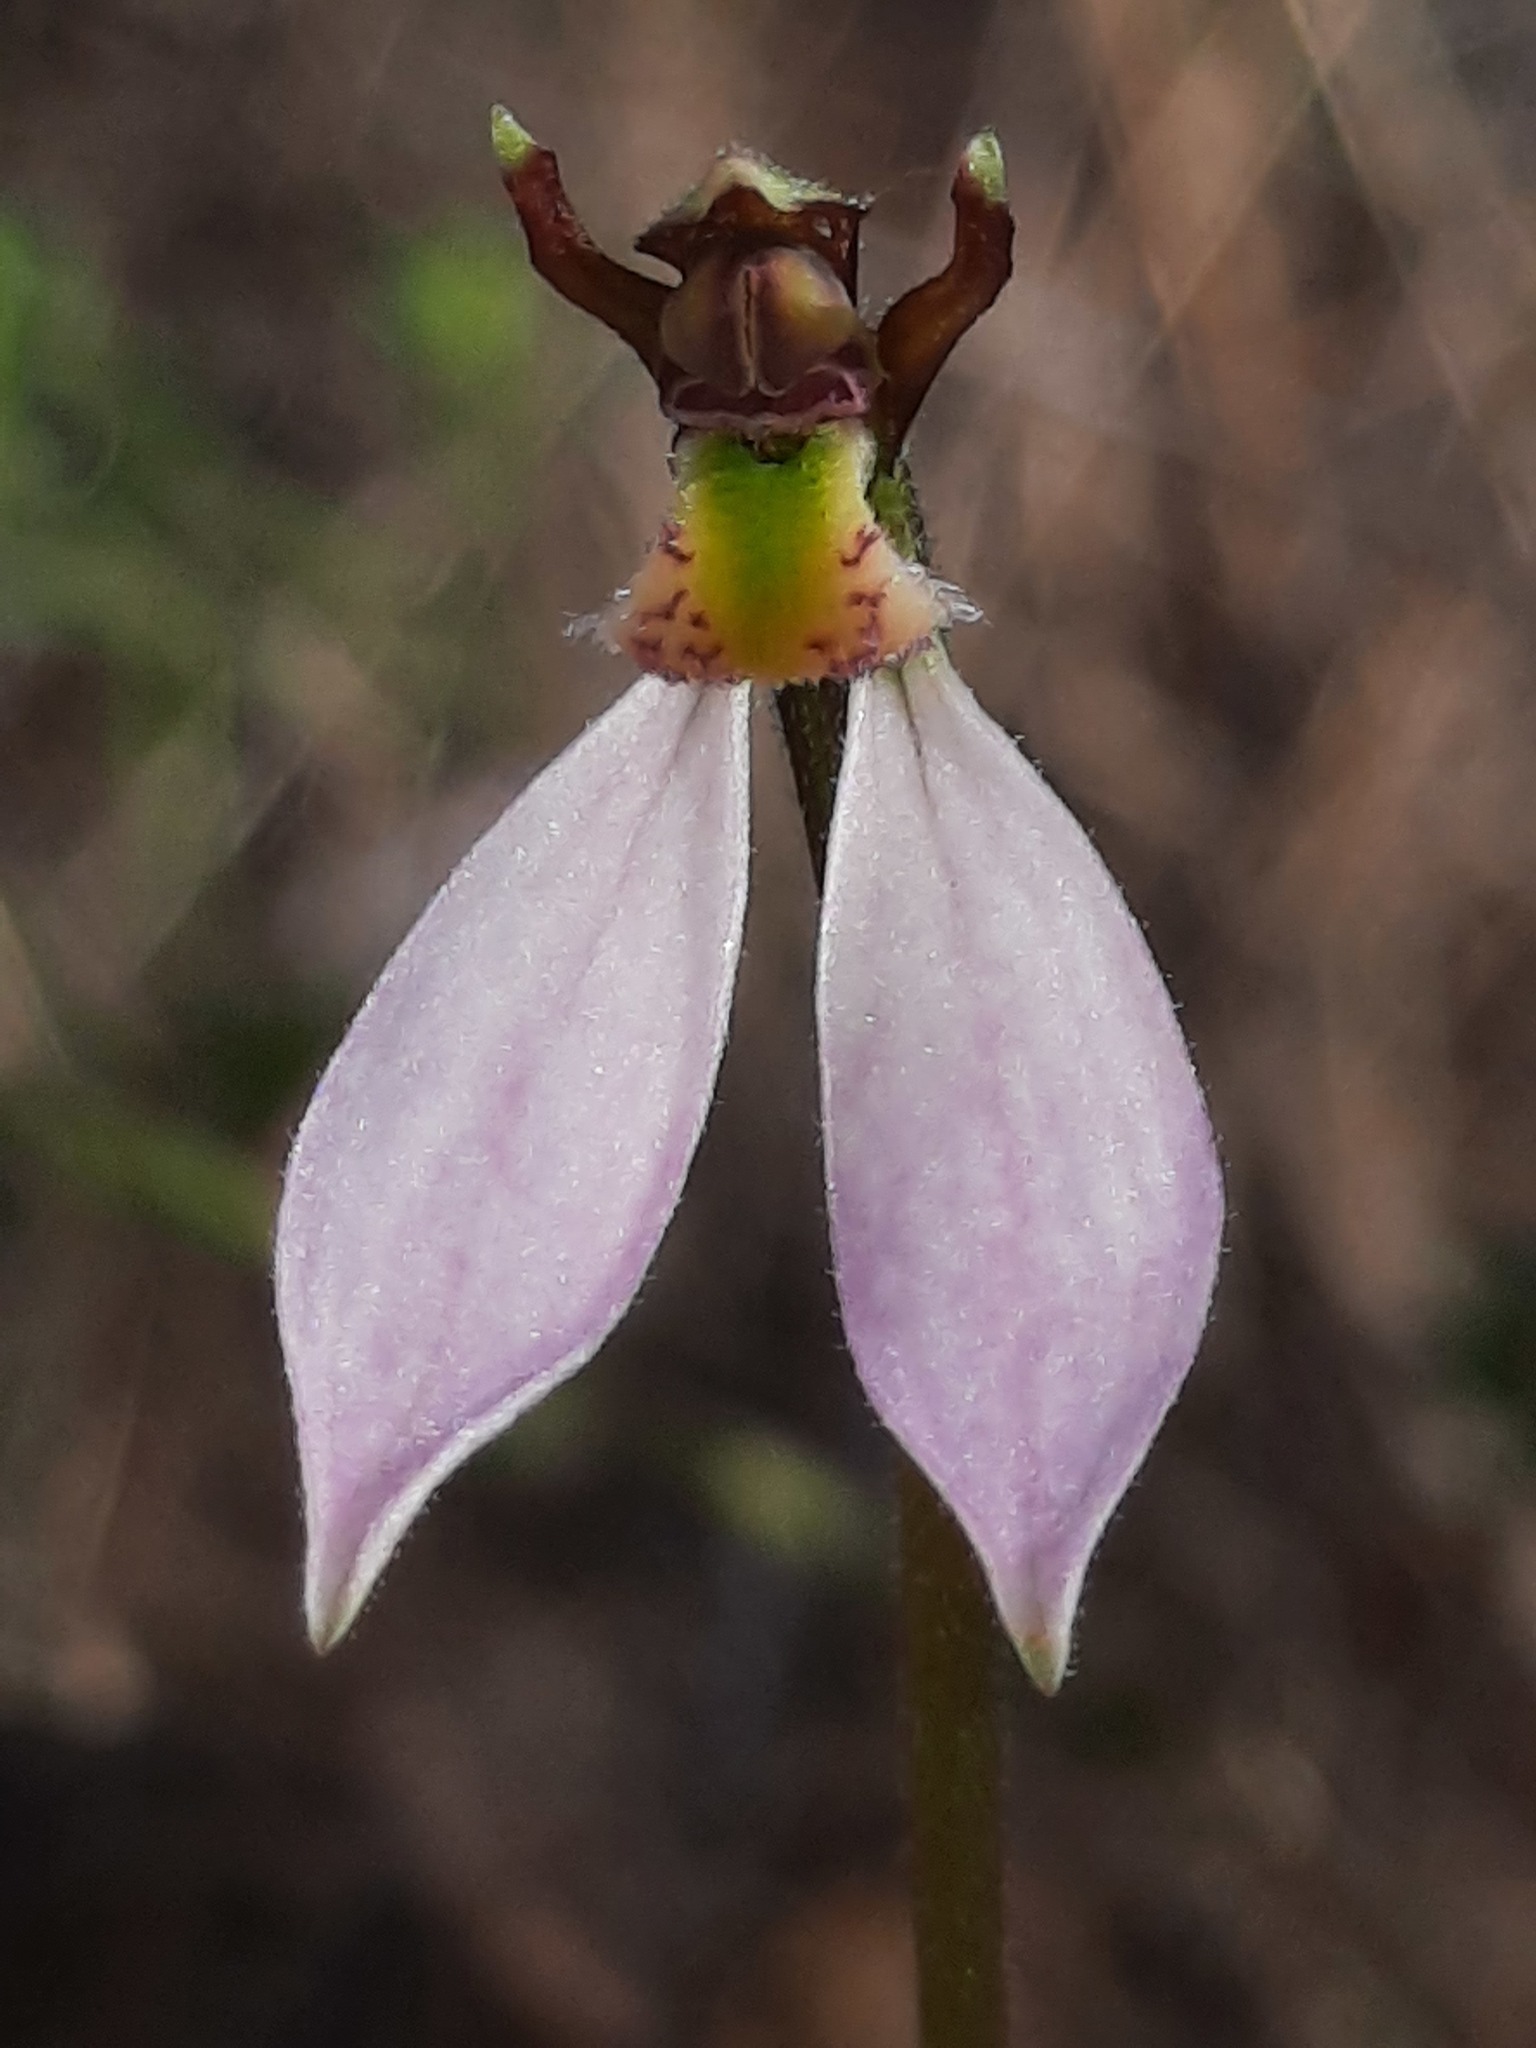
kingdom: Plantae
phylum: Tracheophyta
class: Liliopsida
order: Asparagales
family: Orchidaceae
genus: Eriochilus
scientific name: Eriochilus cucullatus
